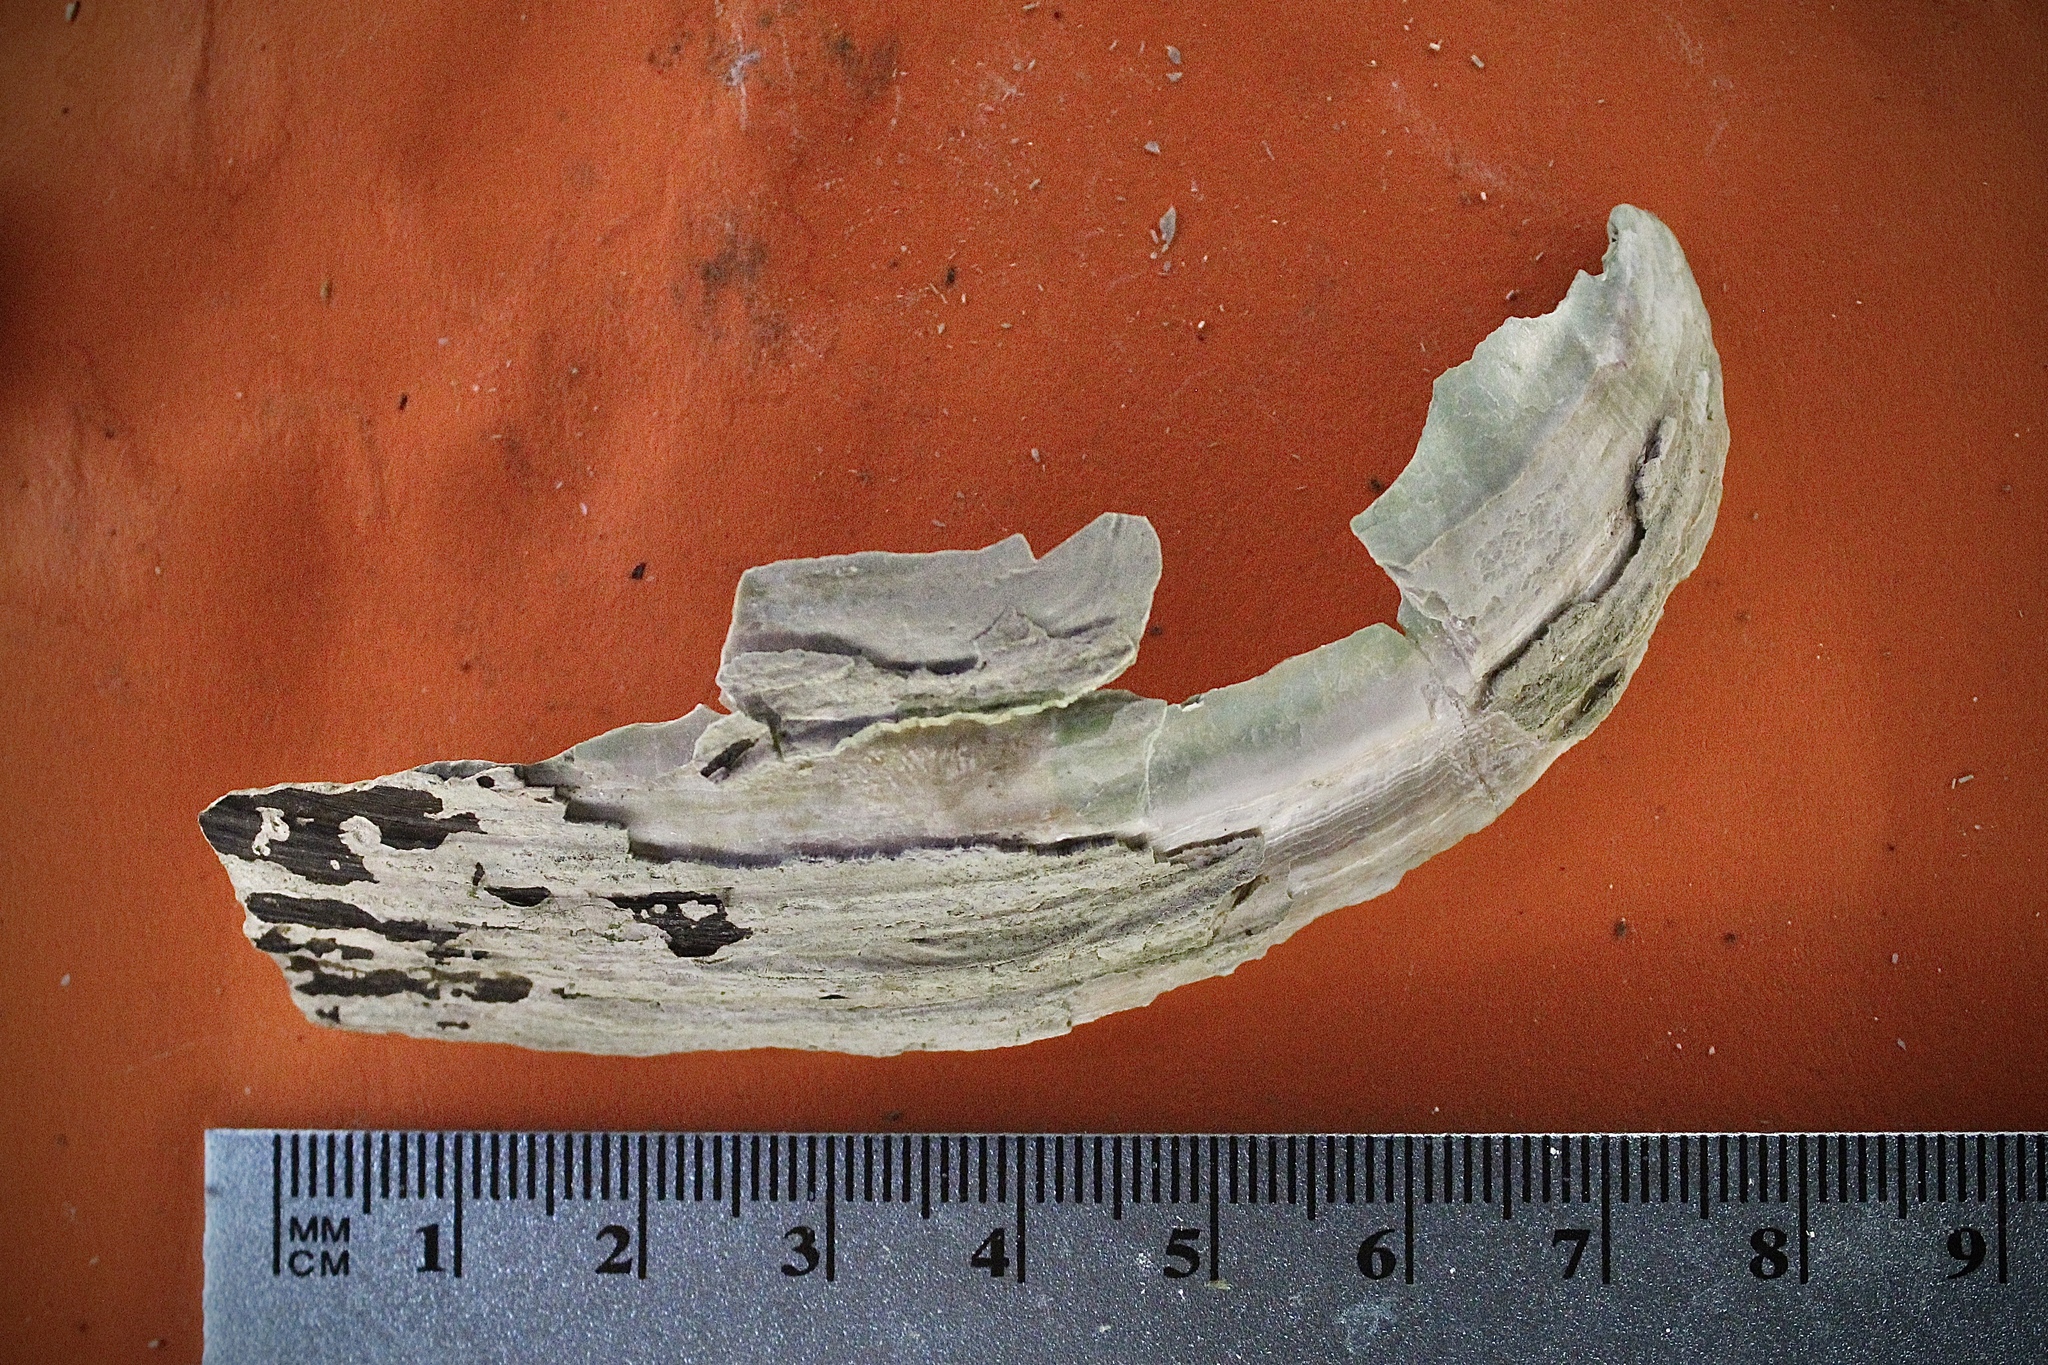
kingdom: Animalia
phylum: Mollusca
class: Bivalvia
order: Unionida
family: Unionidae
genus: Pyganodon
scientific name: Pyganodon grandis
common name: Giant floater
